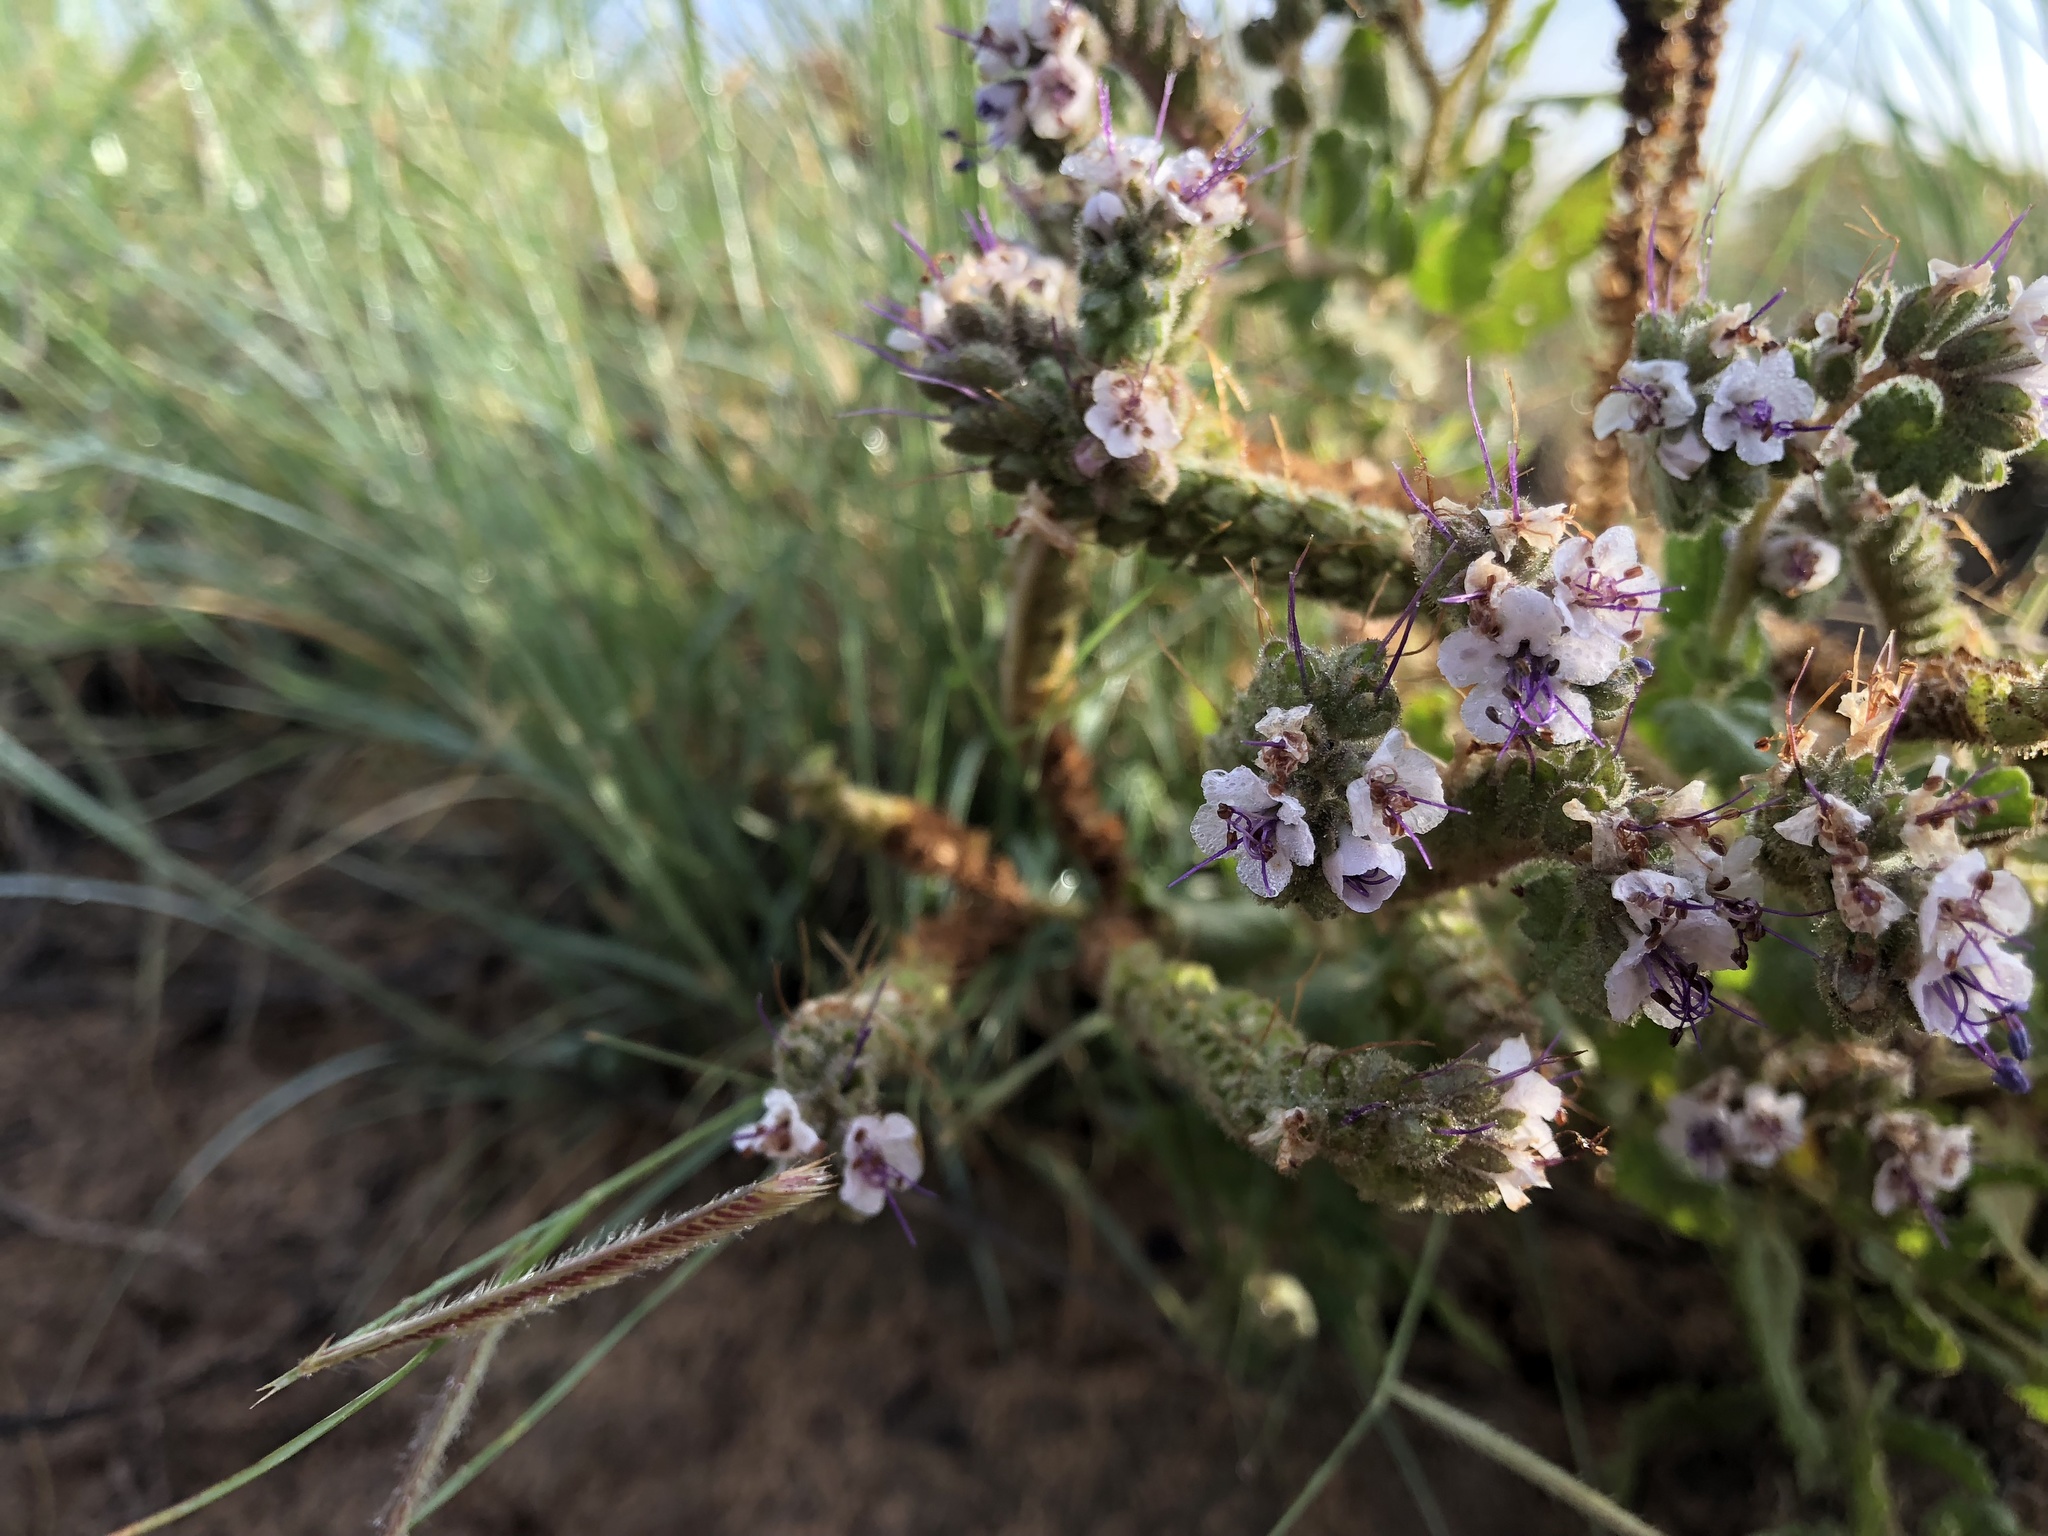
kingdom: Plantae
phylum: Tracheophyta
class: Liliopsida
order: Poales
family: Poaceae
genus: Bouteloua
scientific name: Bouteloua gracilis
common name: Blue grama
